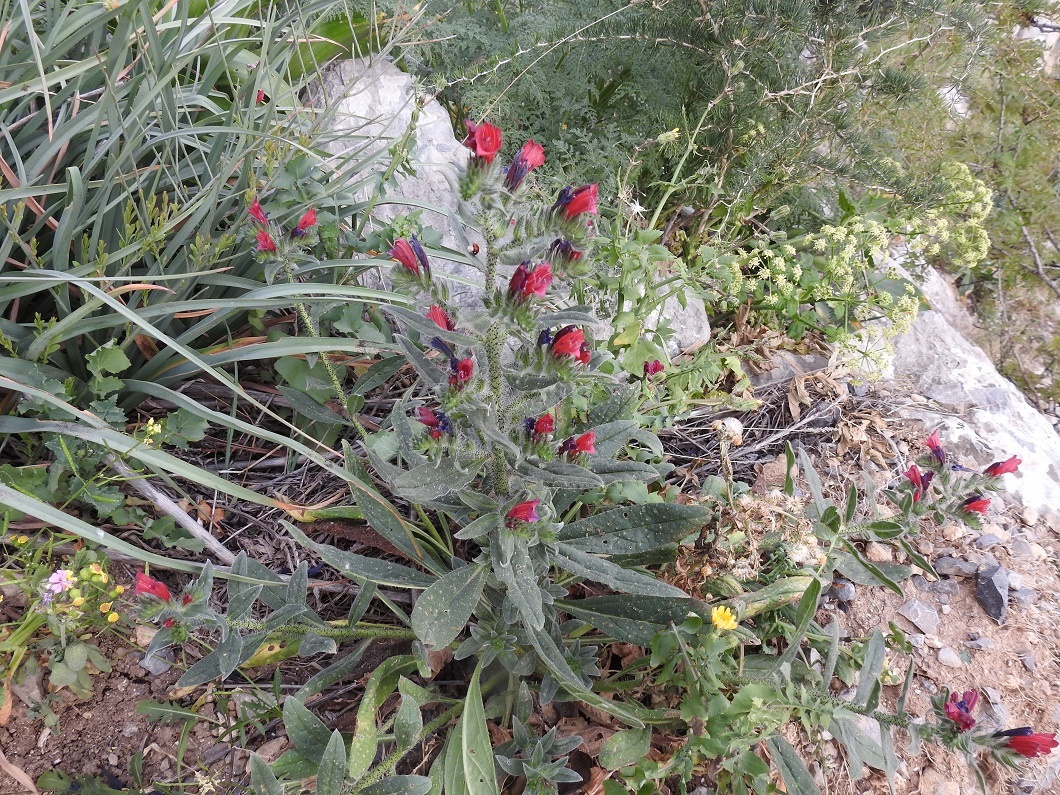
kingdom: Plantae
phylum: Tracheophyta
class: Magnoliopsida
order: Boraginales
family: Boraginaceae
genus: Echium
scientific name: Echium creticum
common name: Cretan viper's bugloss
